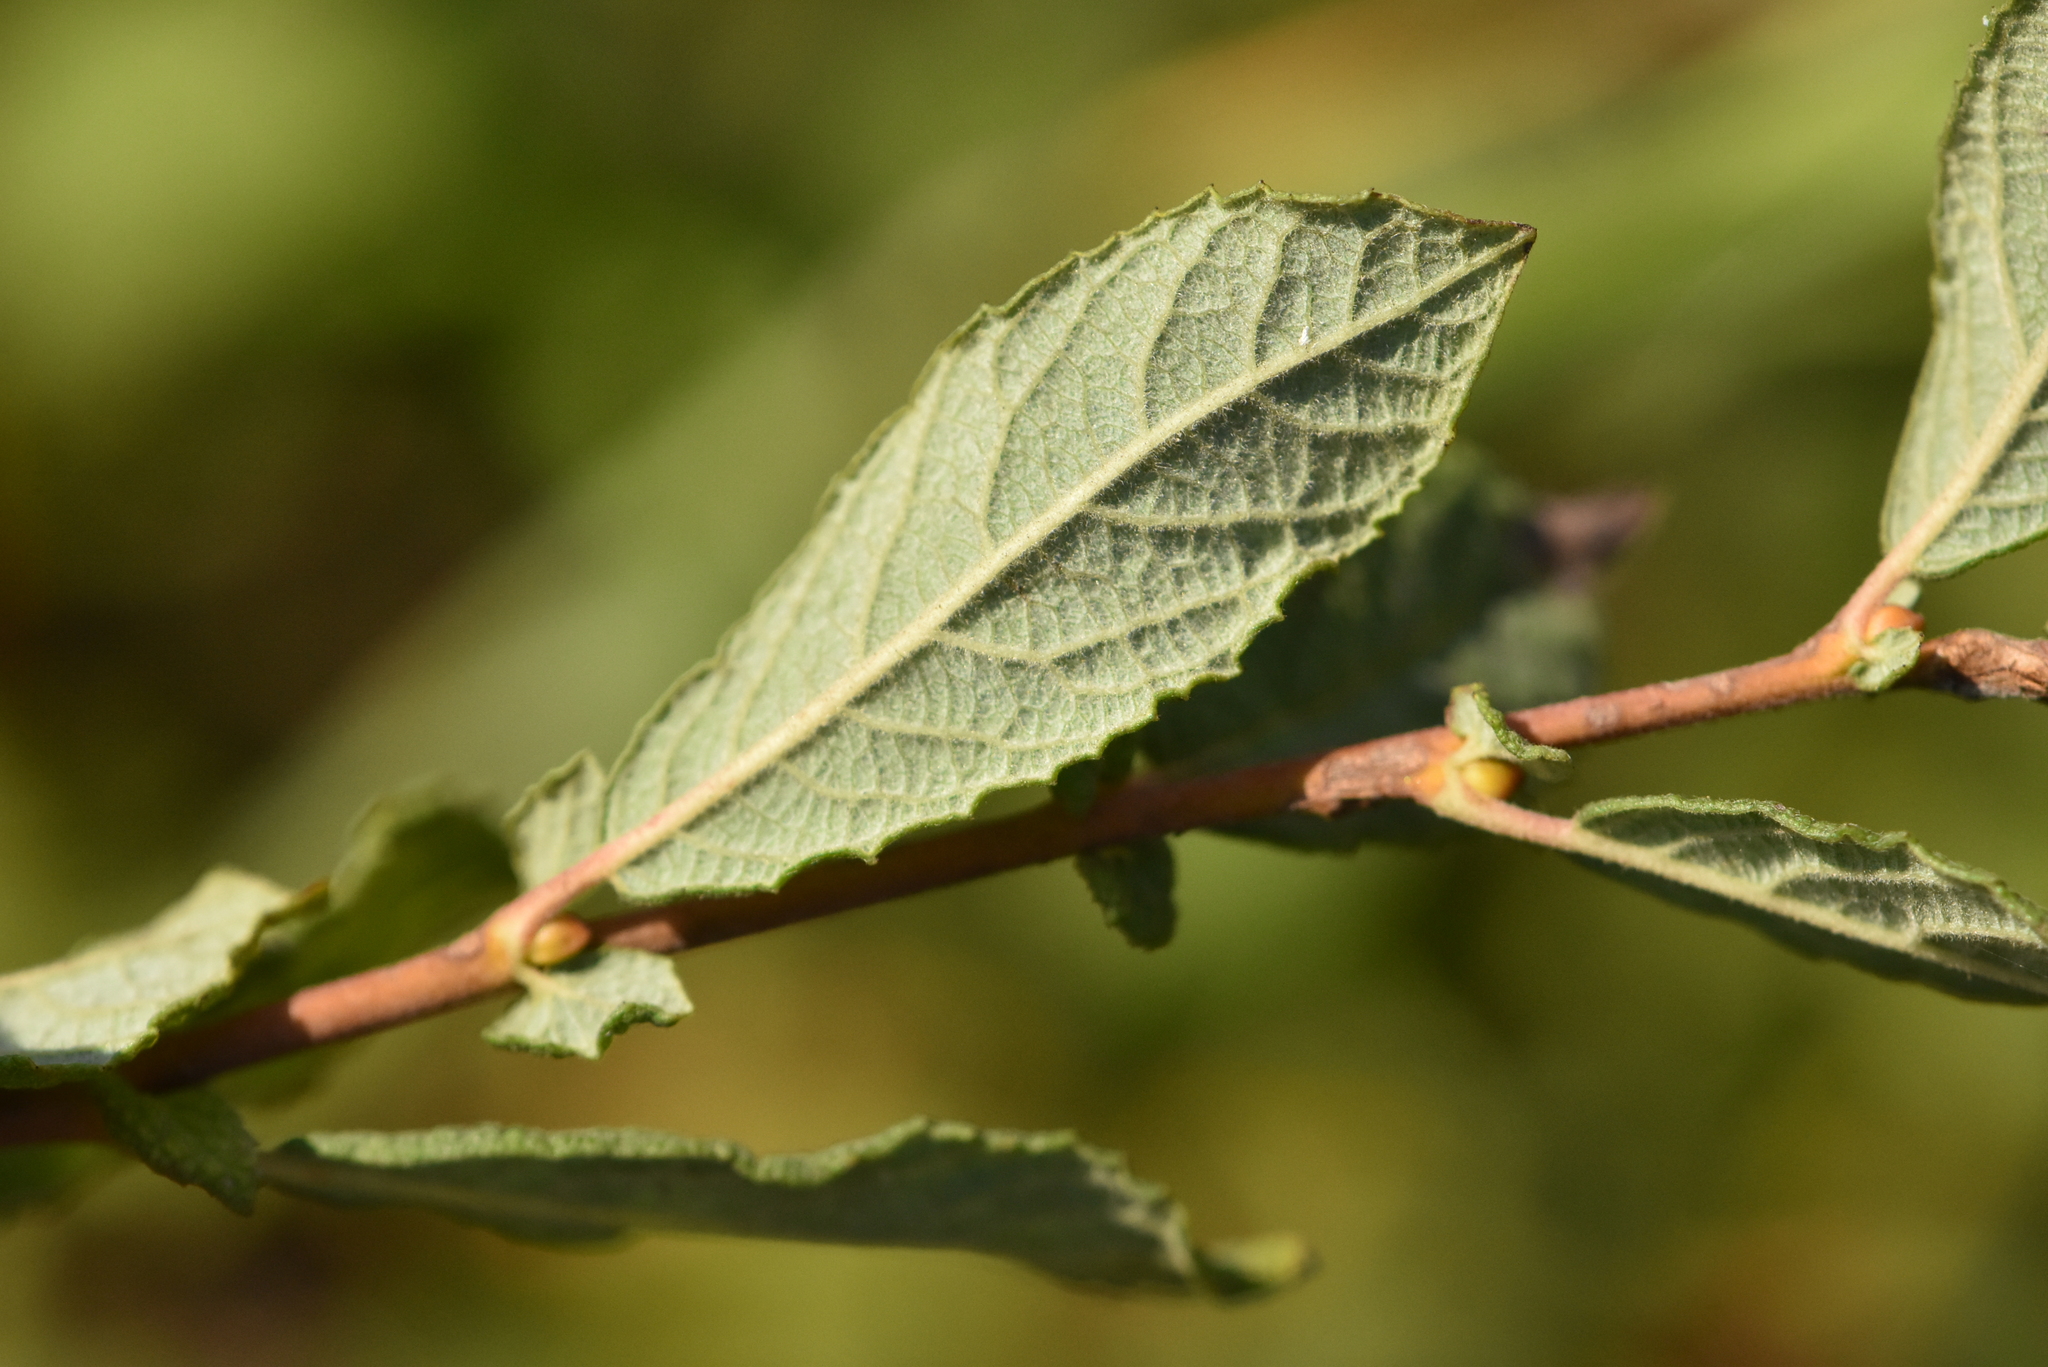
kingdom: Plantae
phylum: Tracheophyta
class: Magnoliopsida
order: Malpighiales
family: Salicaceae
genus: Salix
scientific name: Salix aurita
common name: Eared willow
